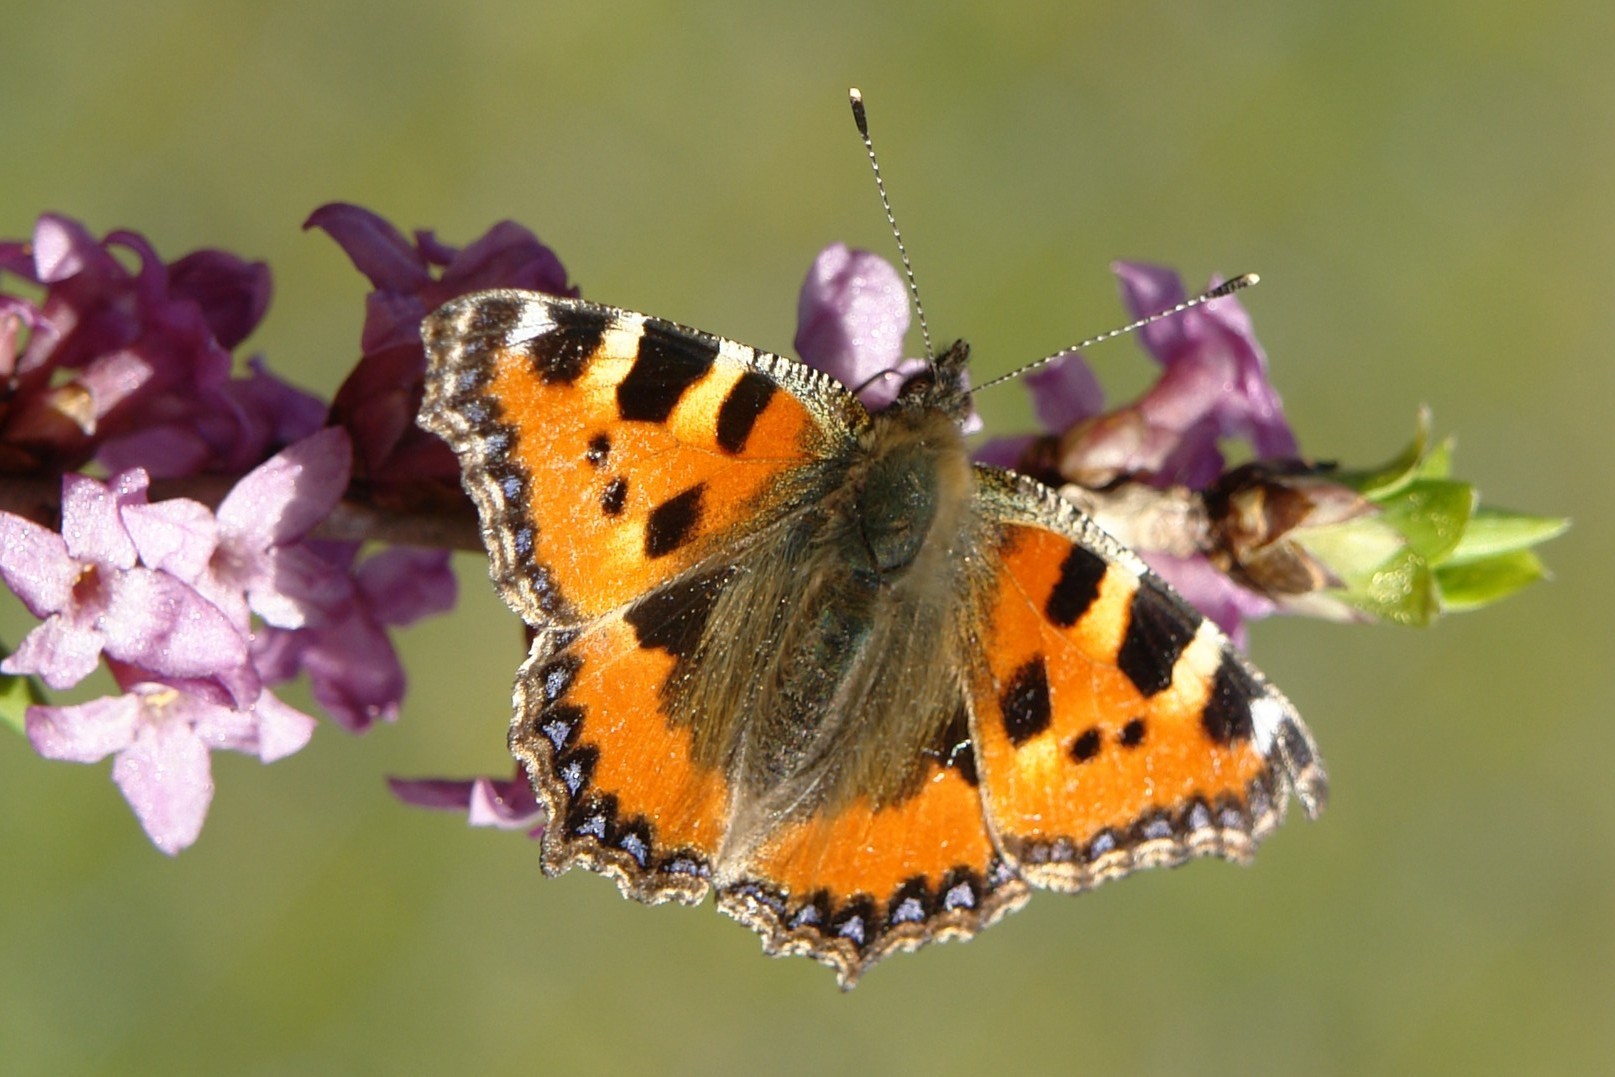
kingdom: Animalia
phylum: Arthropoda
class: Insecta
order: Lepidoptera
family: Nymphalidae
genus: Aglais
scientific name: Aglais urticae
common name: Small tortoiseshell
